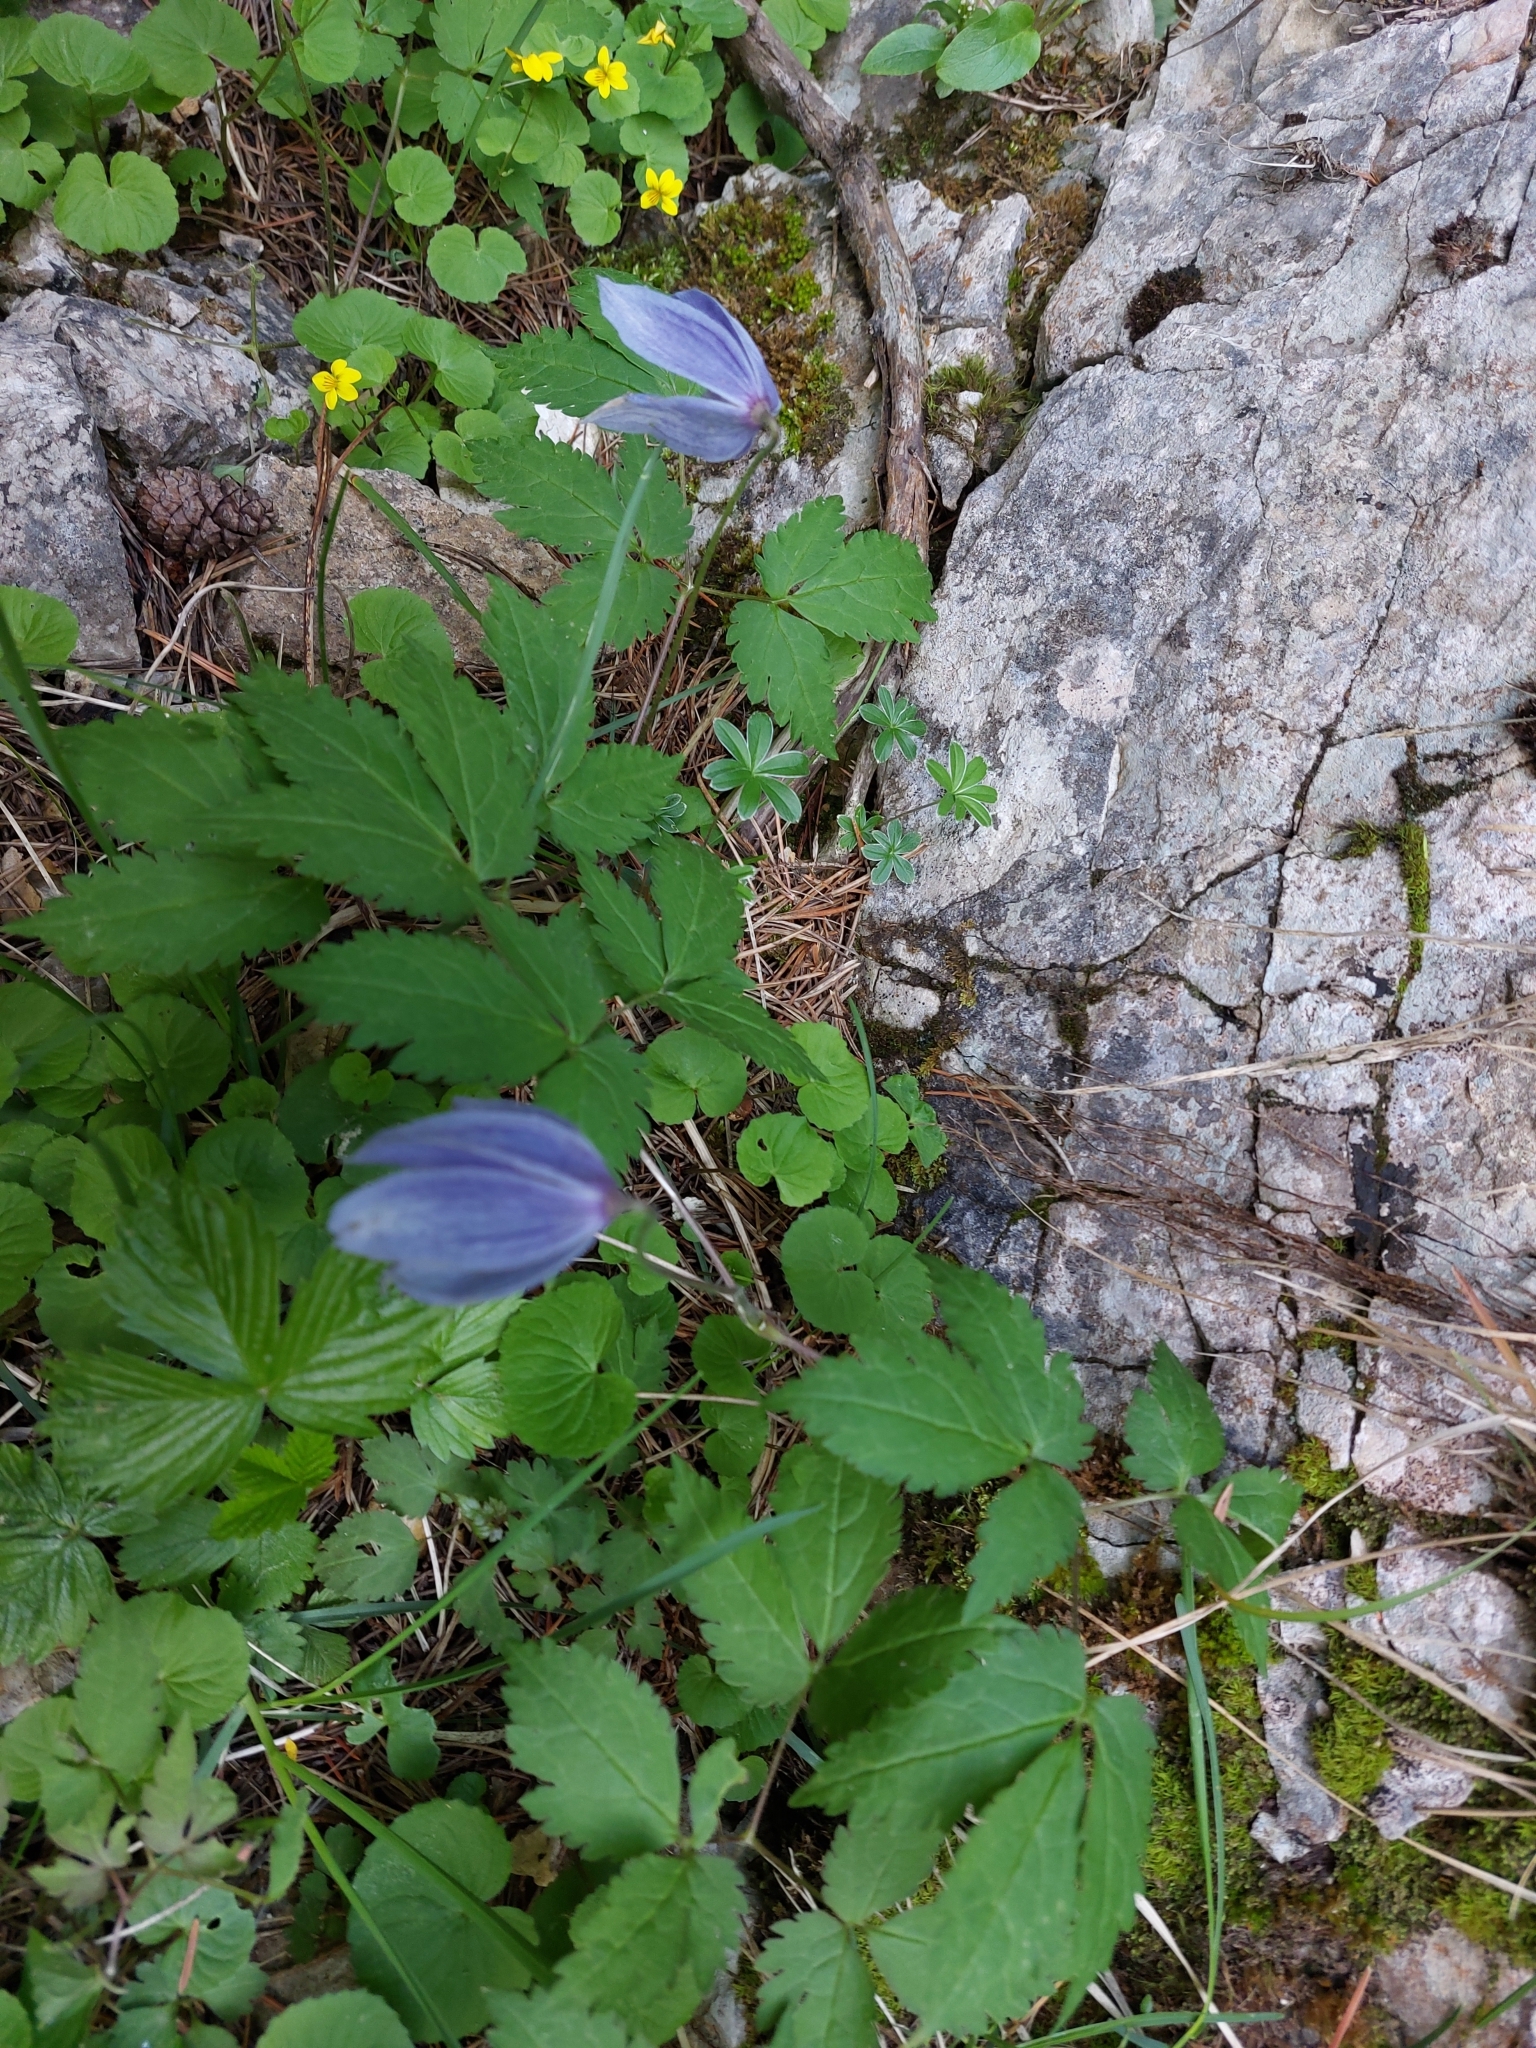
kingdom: Plantae
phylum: Tracheophyta
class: Magnoliopsida
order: Ranunculales
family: Ranunculaceae
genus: Clematis
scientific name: Clematis alpina
